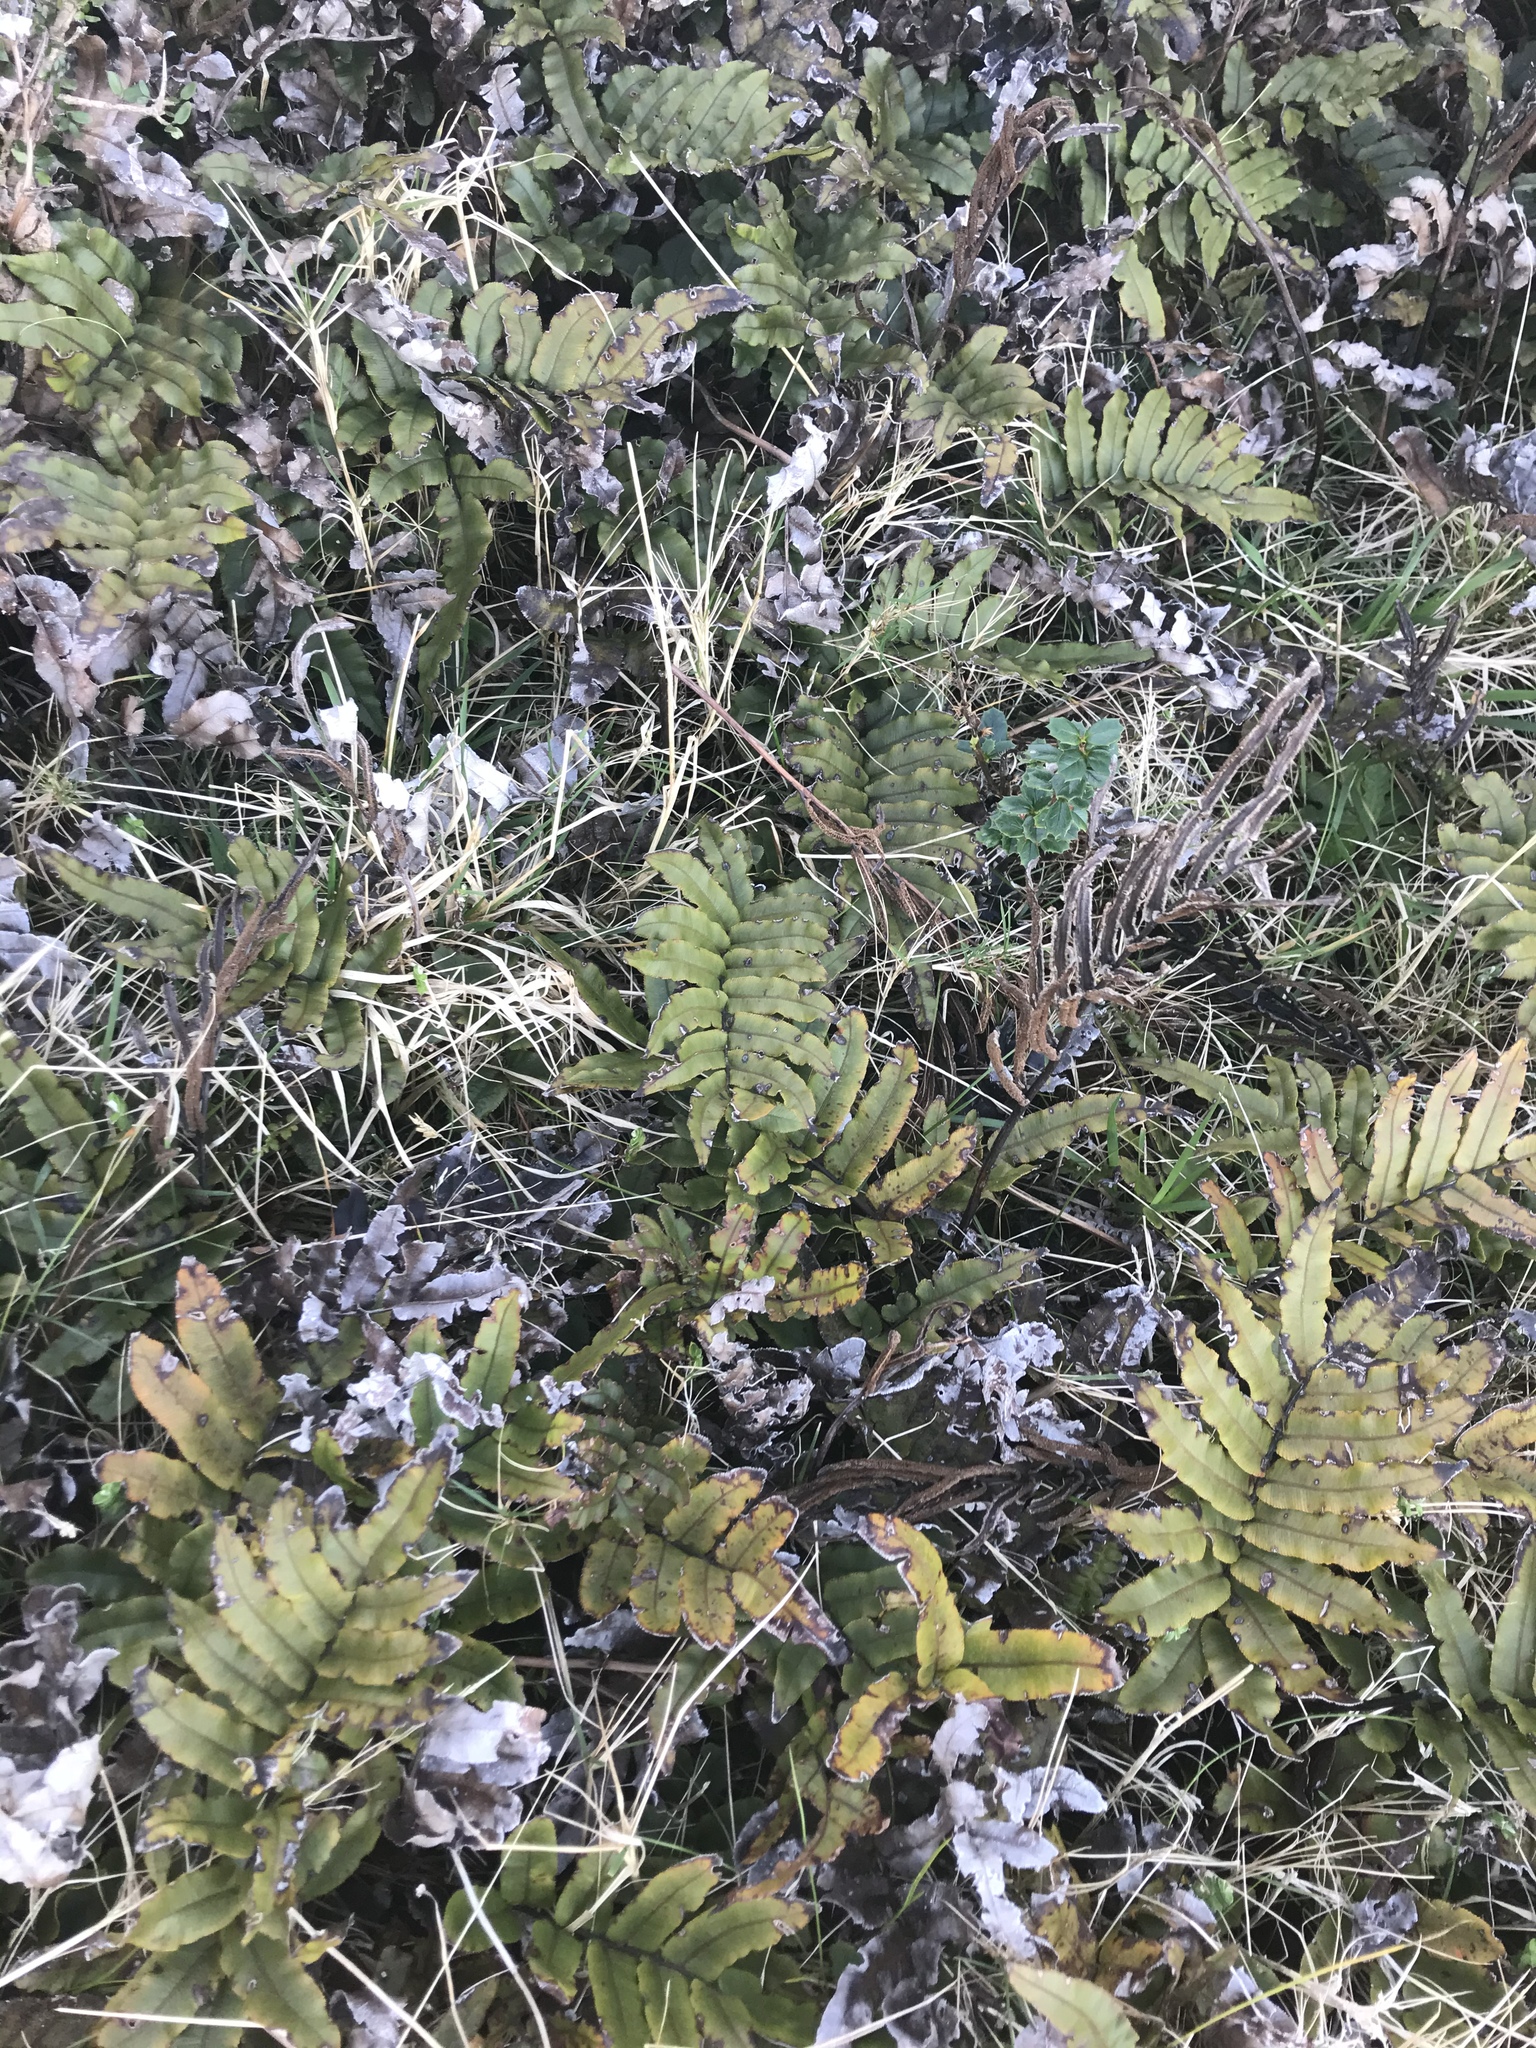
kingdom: Plantae
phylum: Tracheophyta
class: Polypodiopsida
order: Polypodiales
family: Blechnaceae
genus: Parablechnum
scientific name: Parablechnum procerum
